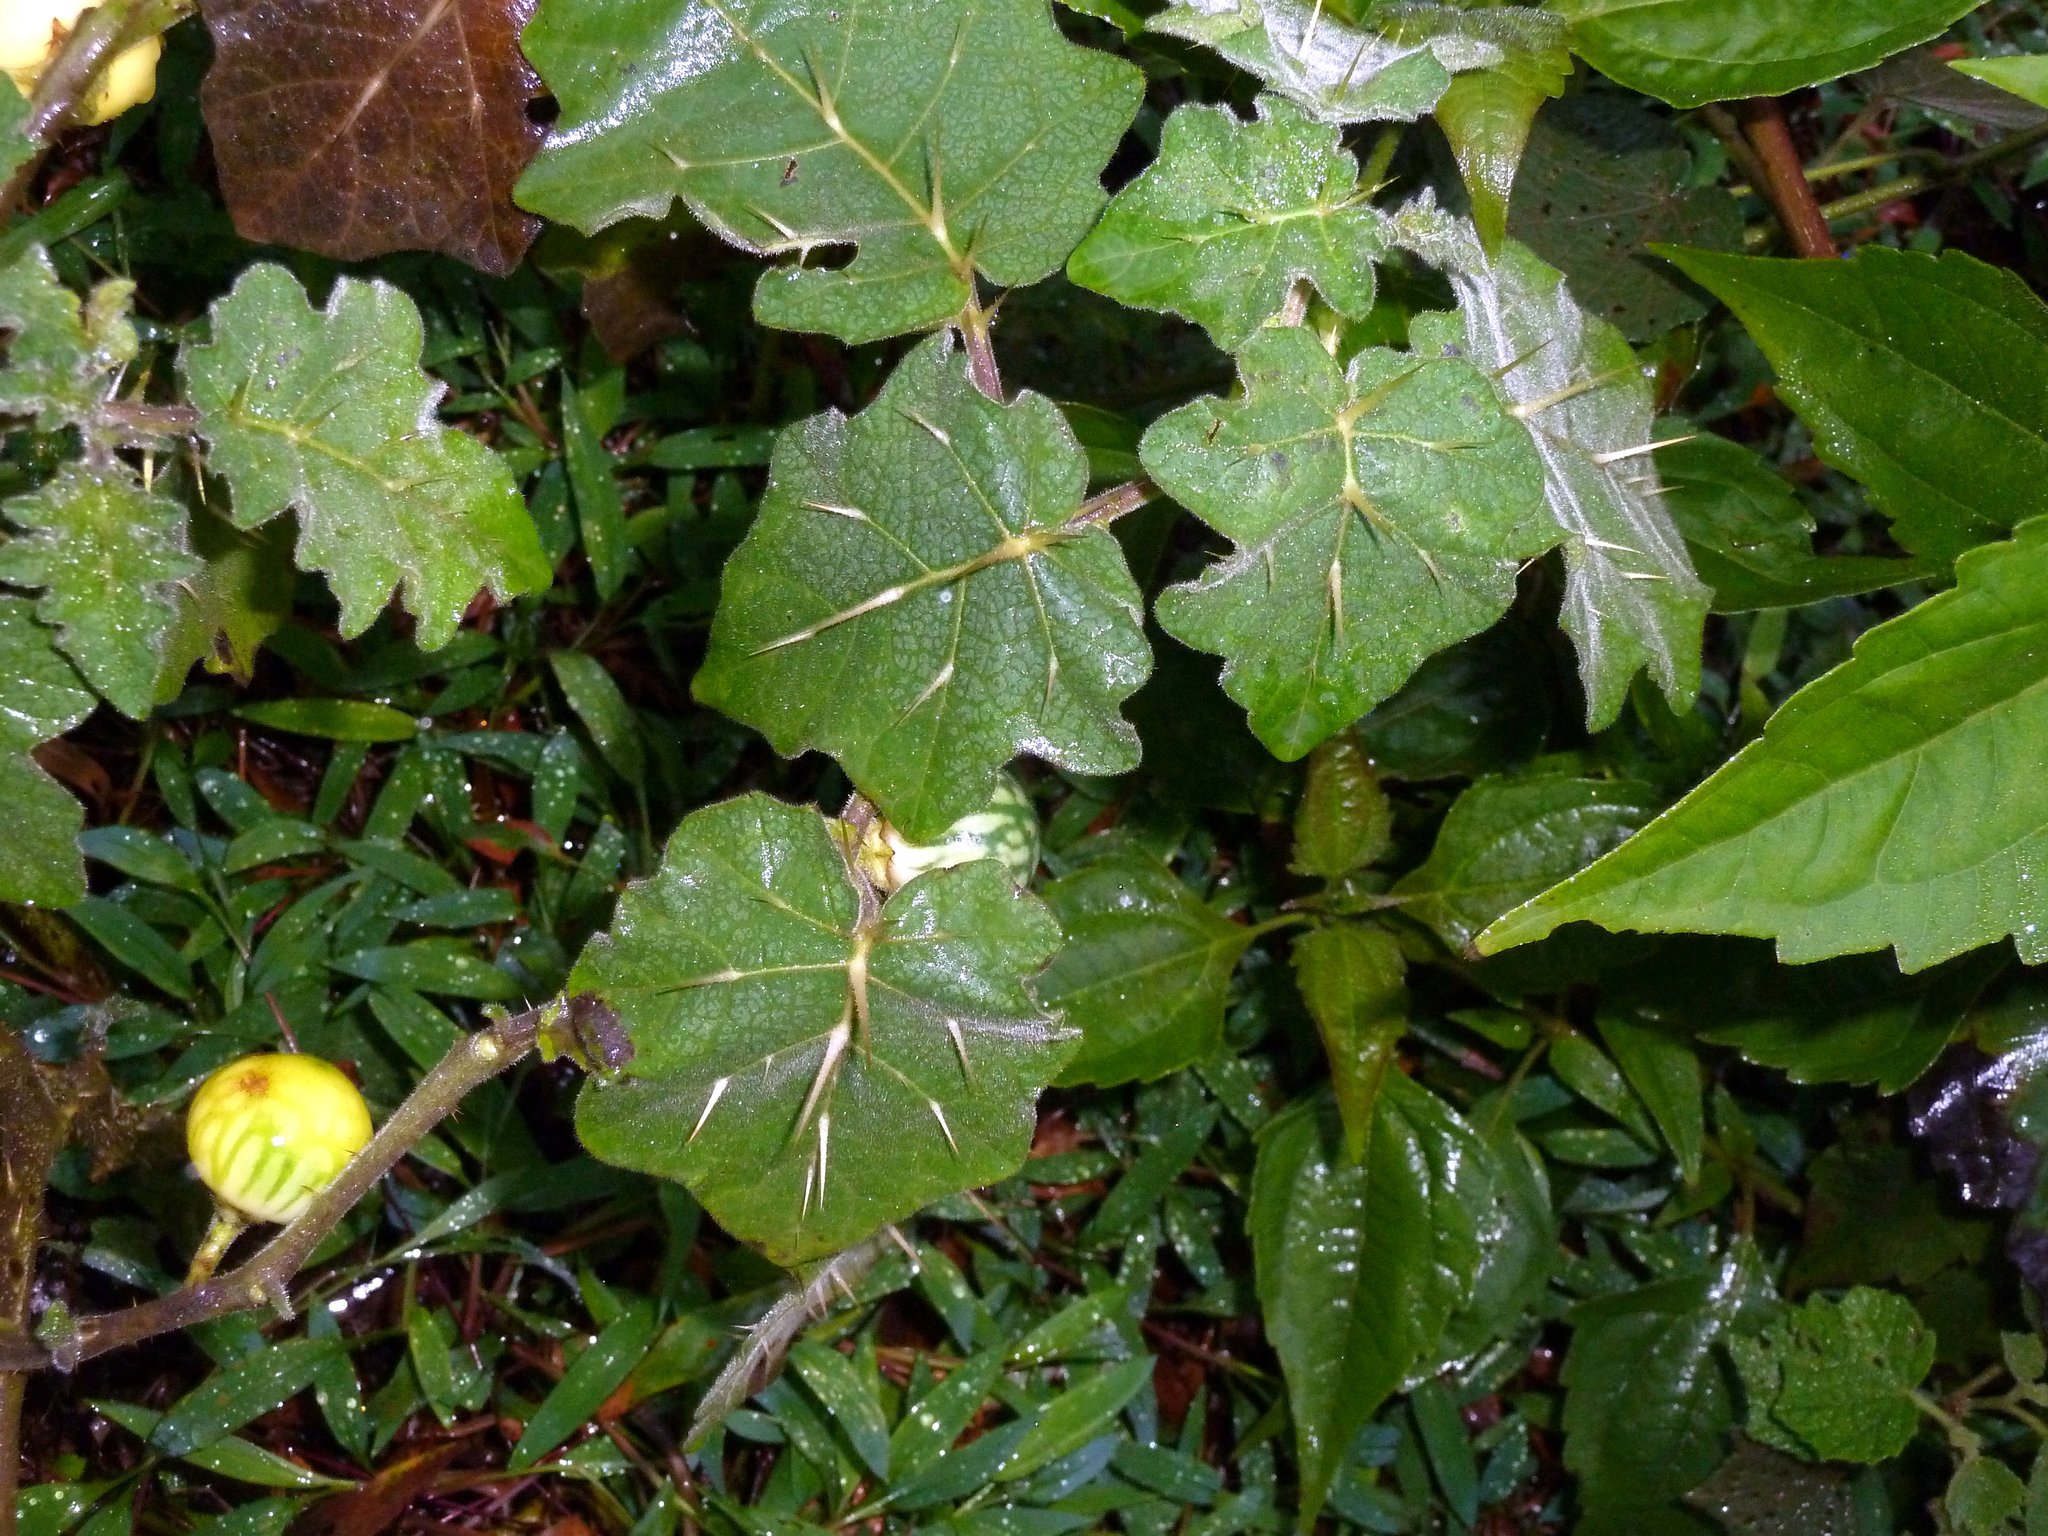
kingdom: Plantae
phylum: Tracheophyta
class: Magnoliopsida
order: Solanales
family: Solanaceae
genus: Solanum
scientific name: Solanum viarum
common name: Tropical soda apple
